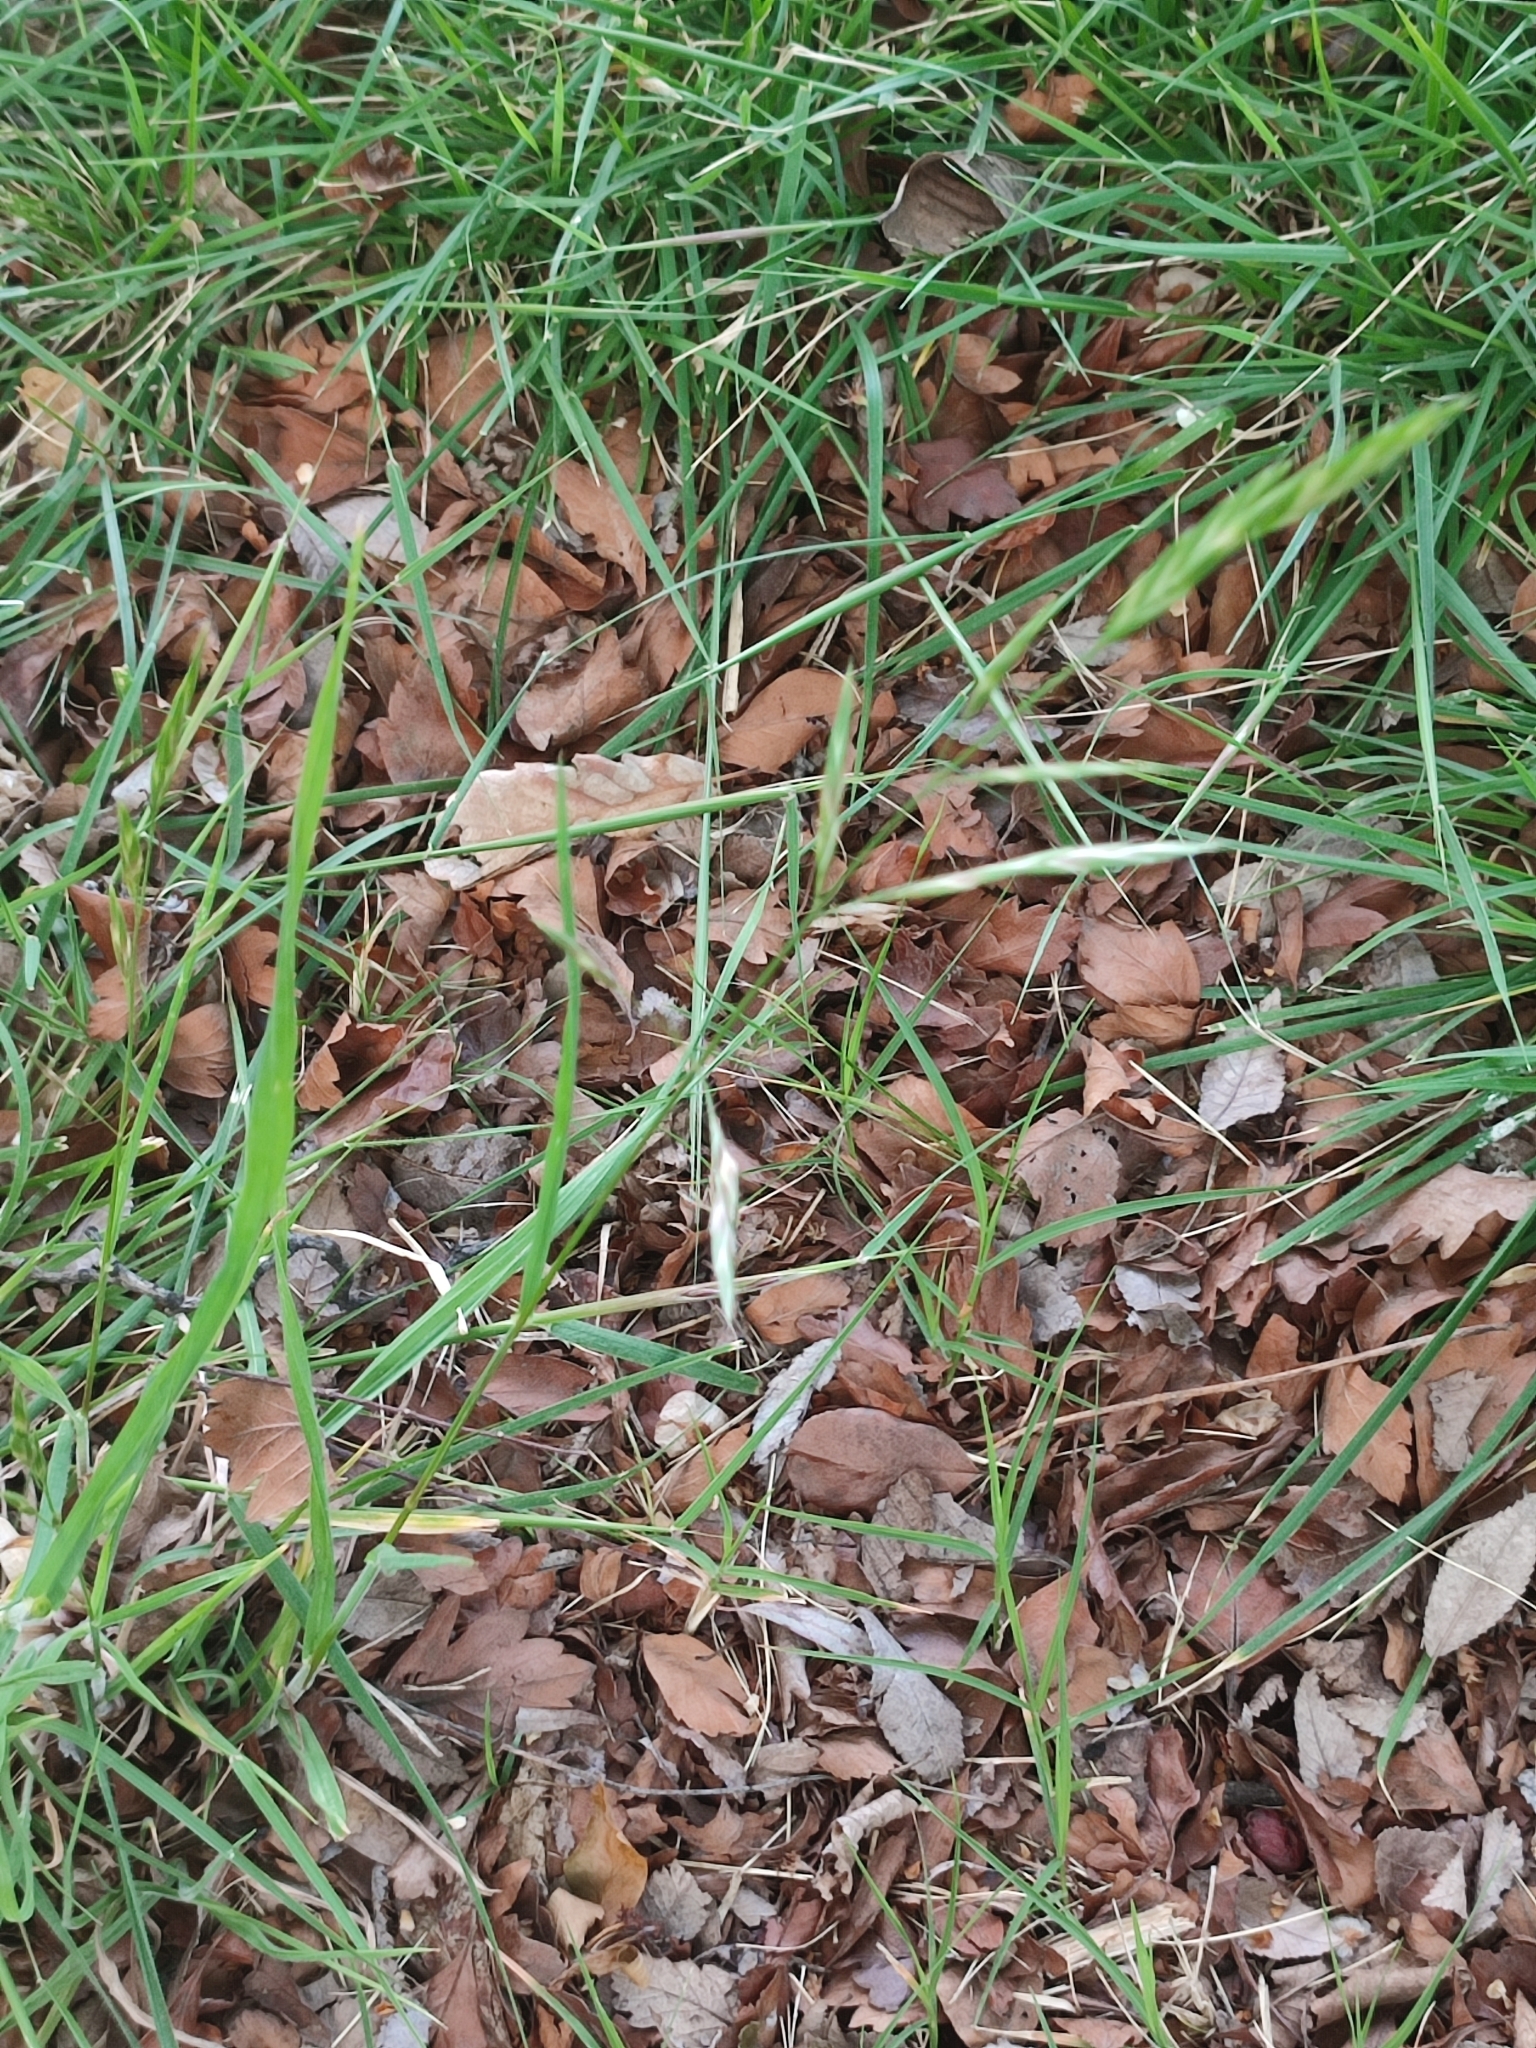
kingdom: Plantae
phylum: Tracheophyta
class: Liliopsida
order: Poales
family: Poaceae
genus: Bromus
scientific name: Bromus catharticus
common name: Rescuegrass
